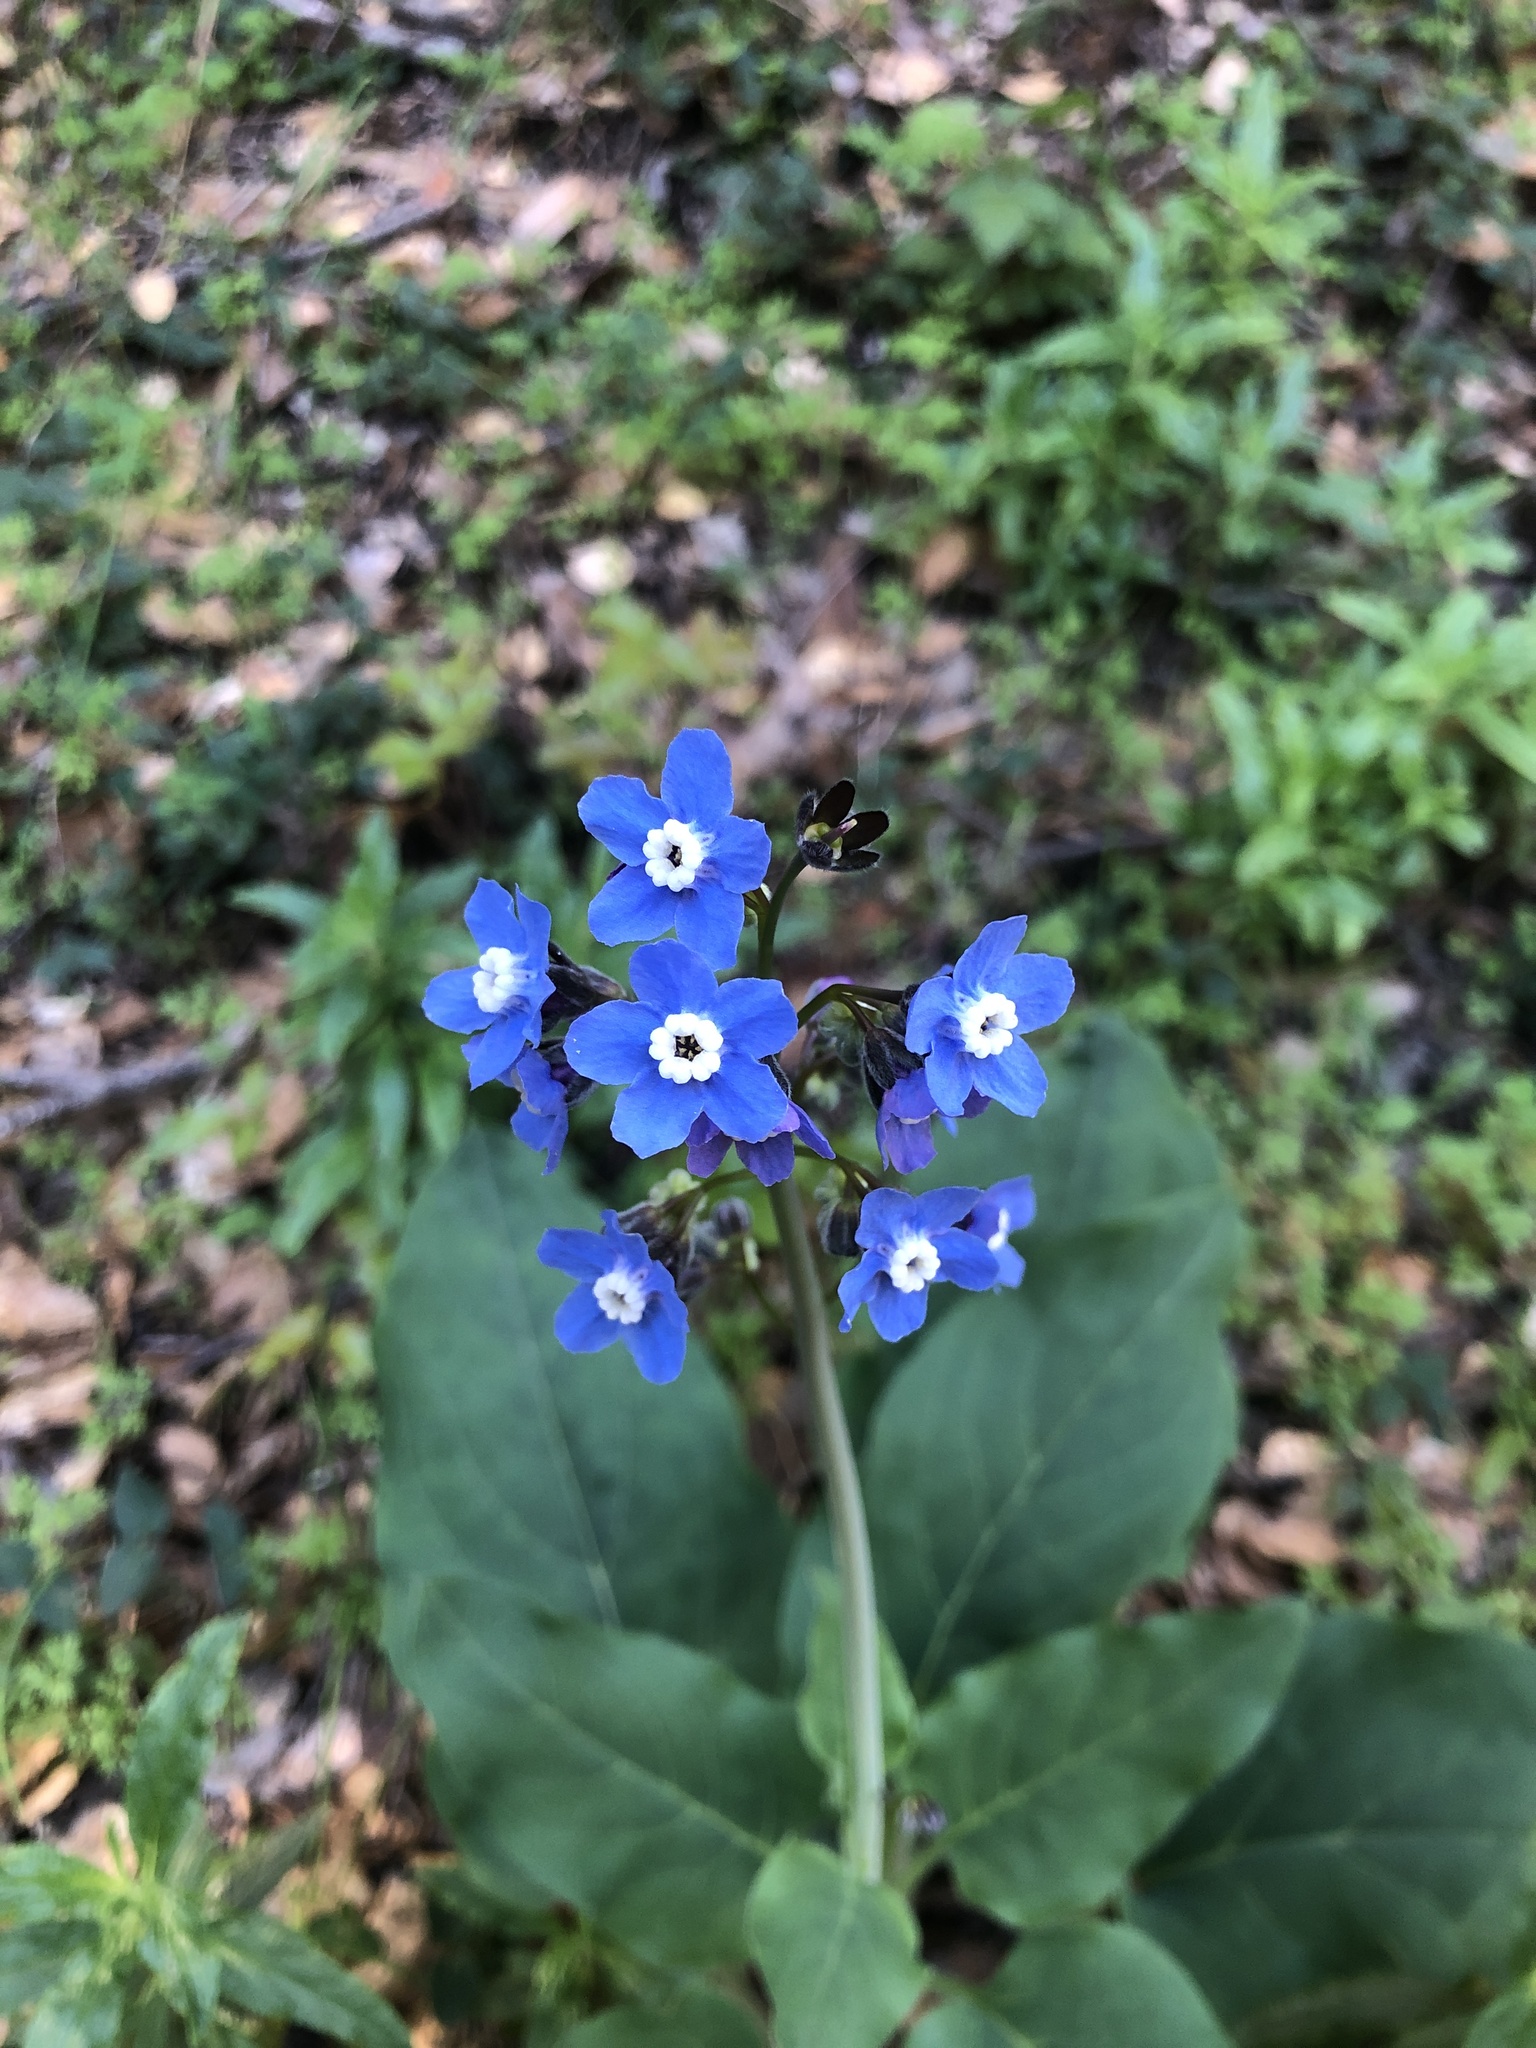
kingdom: Plantae
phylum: Tracheophyta
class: Magnoliopsida
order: Boraginales
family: Boraginaceae
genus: Adelinia
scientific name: Adelinia grande
